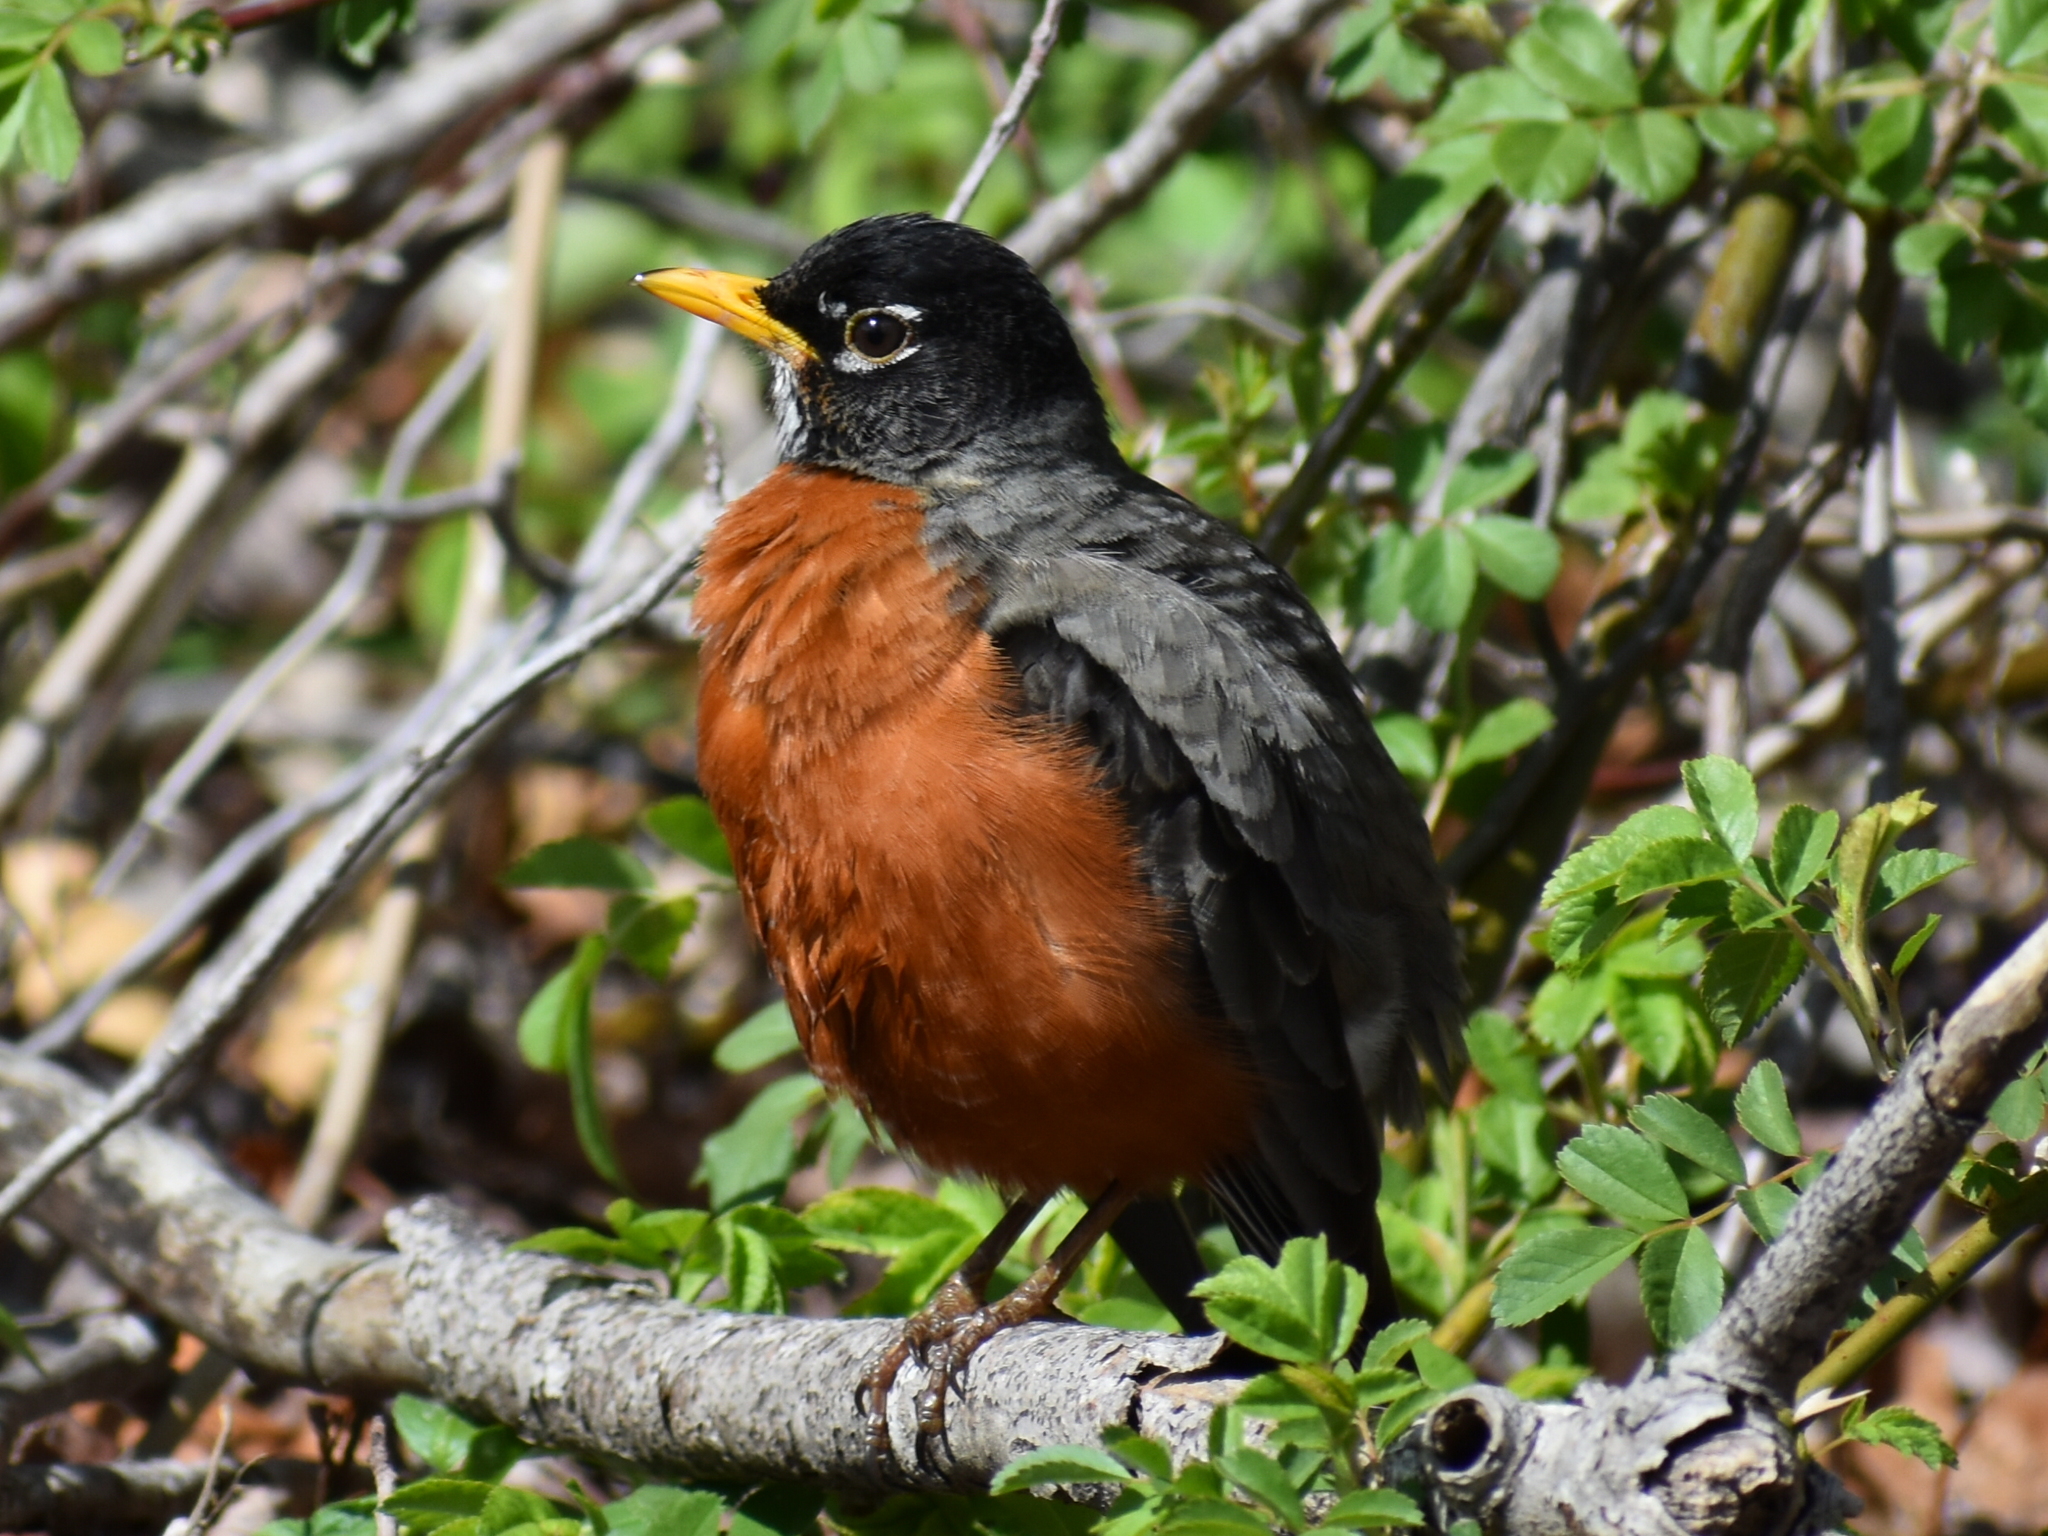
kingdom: Animalia
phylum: Chordata
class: Aves
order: Passeriformes
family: Turdidae
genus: Turdus
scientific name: Turdus migratorius
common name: American robin
